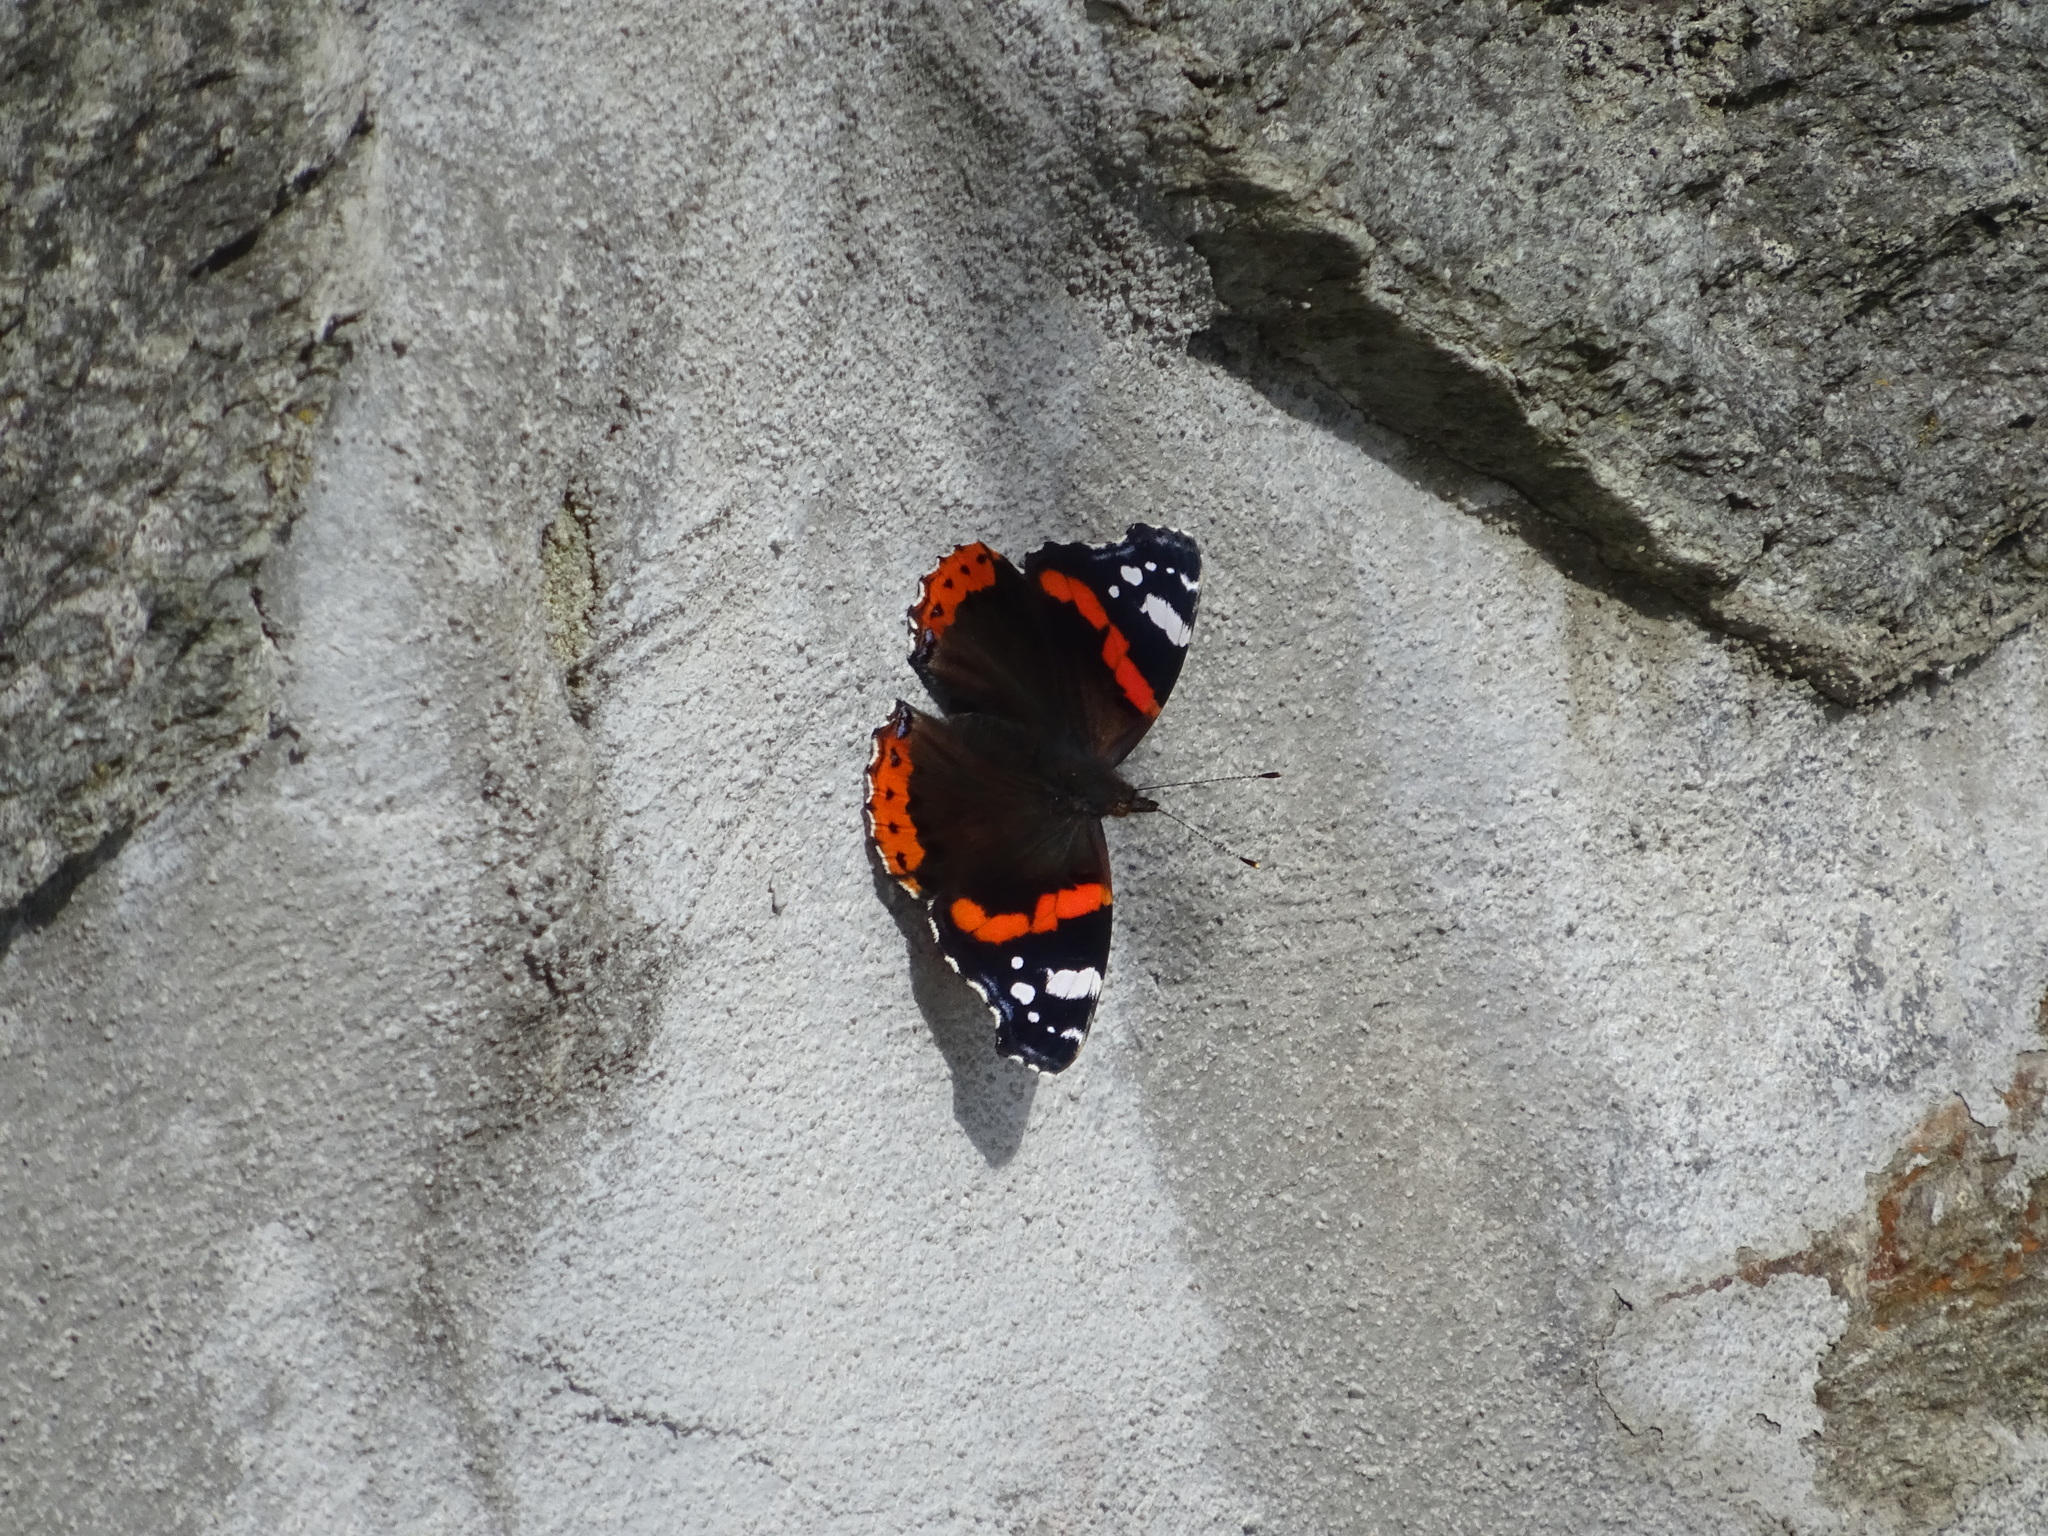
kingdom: Animalia
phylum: Arthropoda
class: Insecta
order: Lepidoptera
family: Nymphalidae
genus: Vanessa
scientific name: Vanessa atalanta
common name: Red admiral
